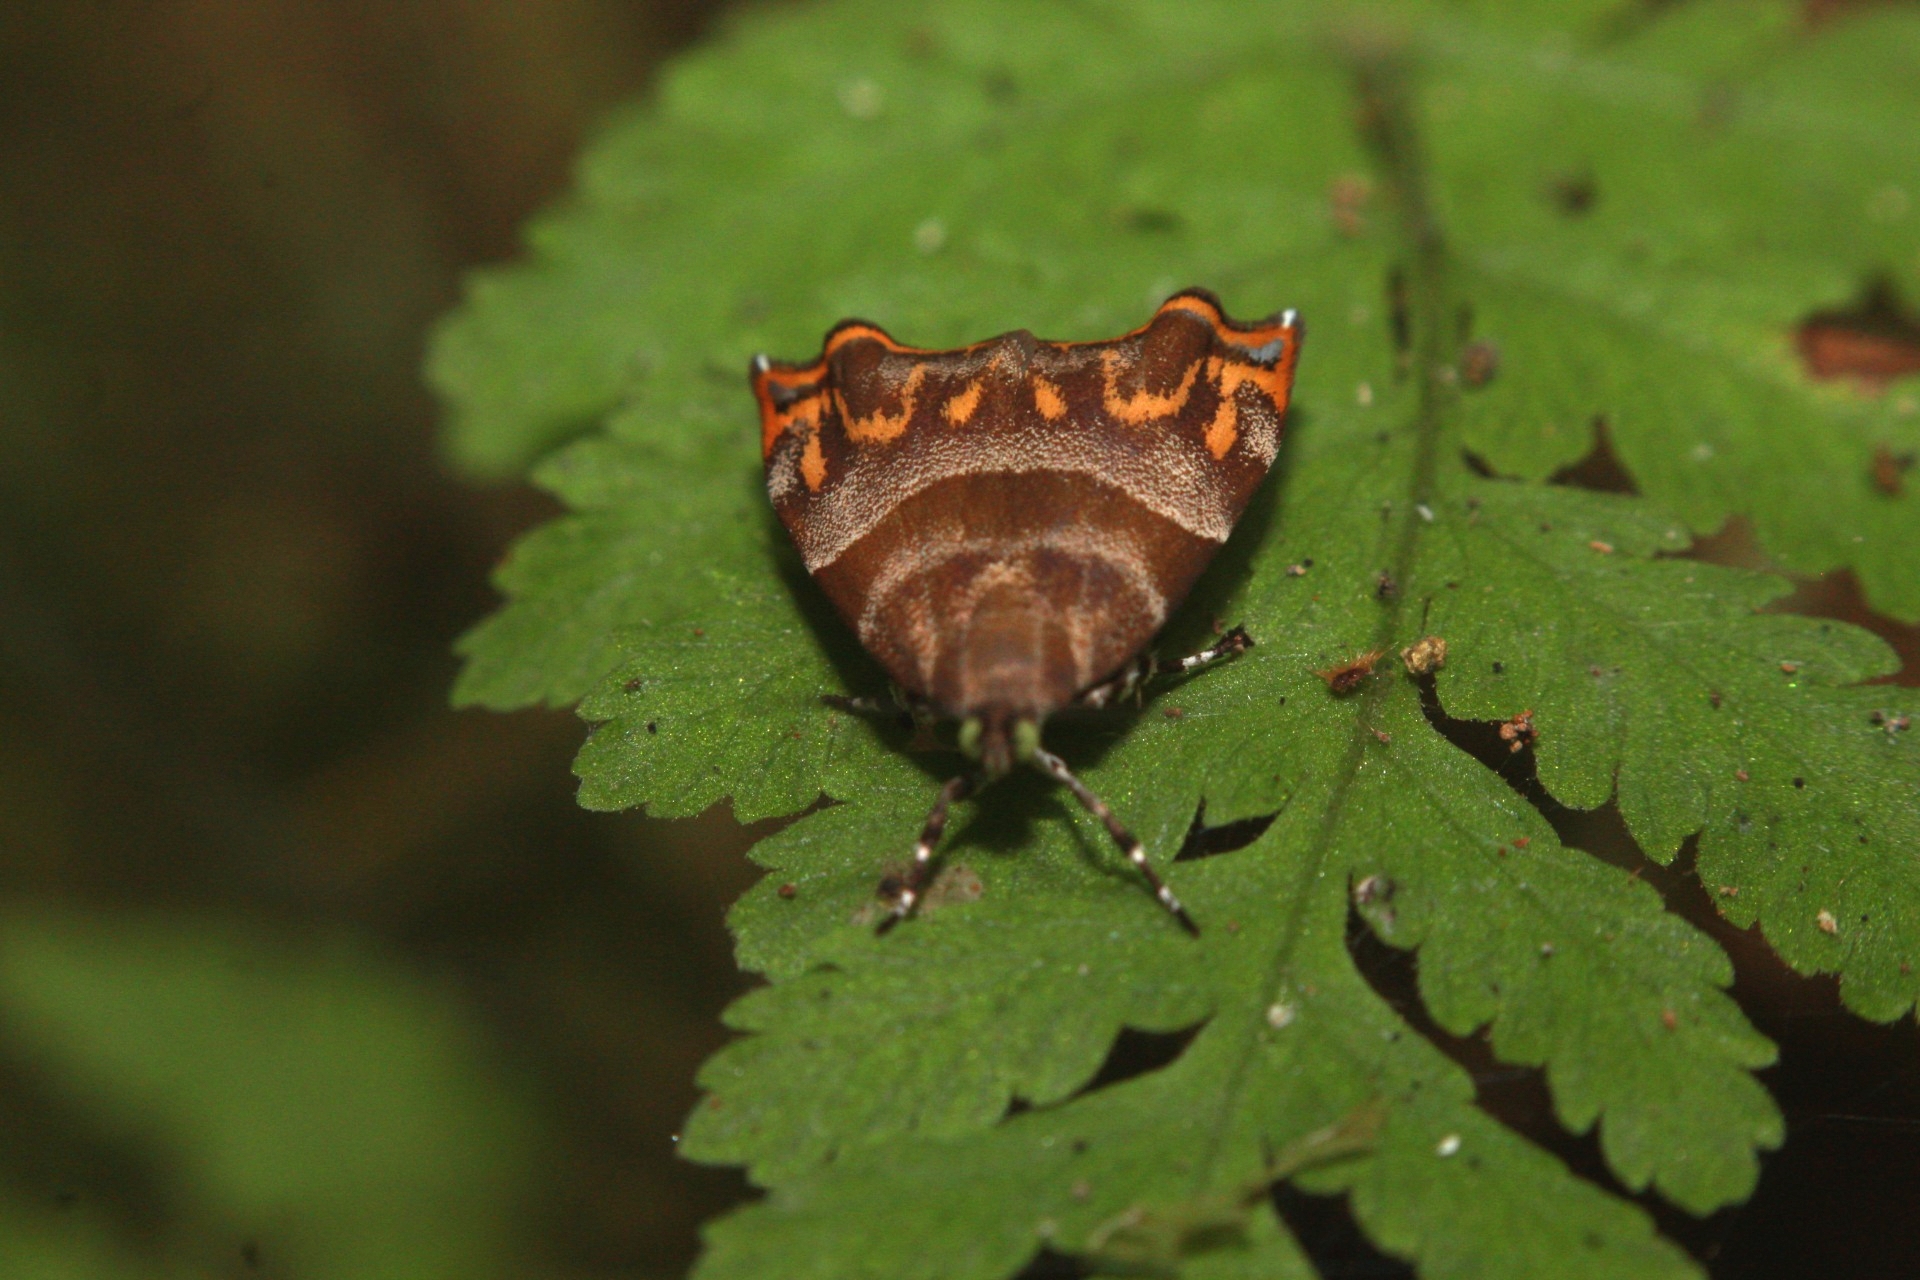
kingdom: Animalia
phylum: Arthropoda
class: Insecta
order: Lepidoptera
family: Choreutidae
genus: Ornarantia
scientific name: Ornarantia
